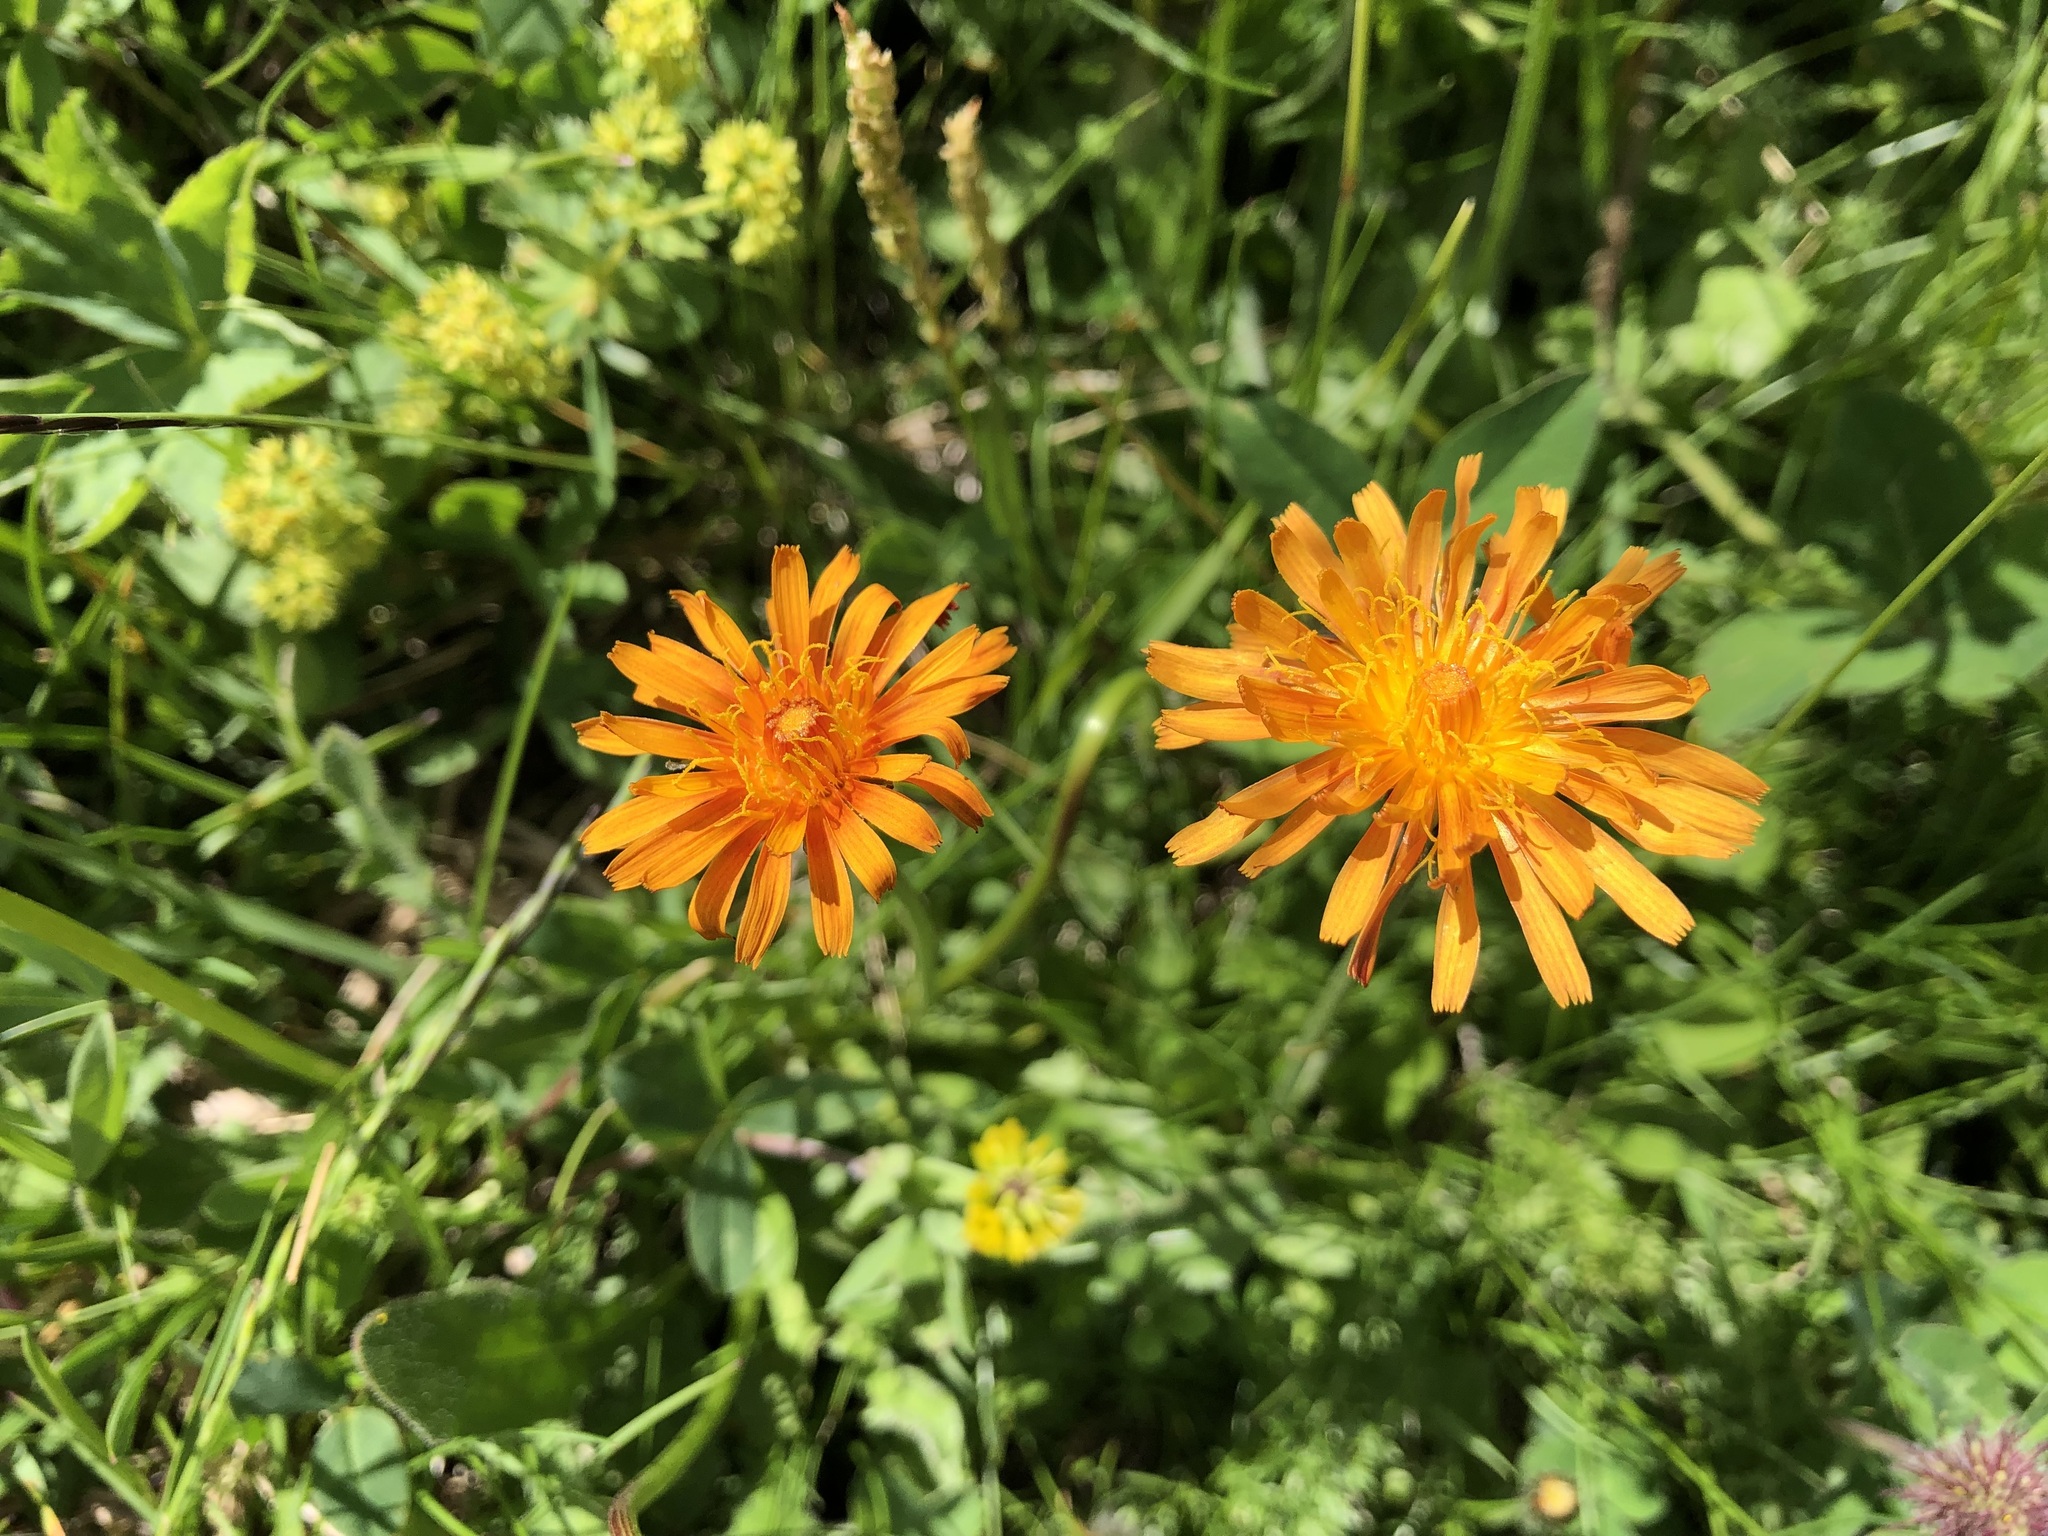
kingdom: Plantae
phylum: Tracheophyta
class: Magnoliopsida
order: Asterales
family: Asteraceae
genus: Crepis
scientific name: Crepis aurea
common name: Golden hawk's-beard
